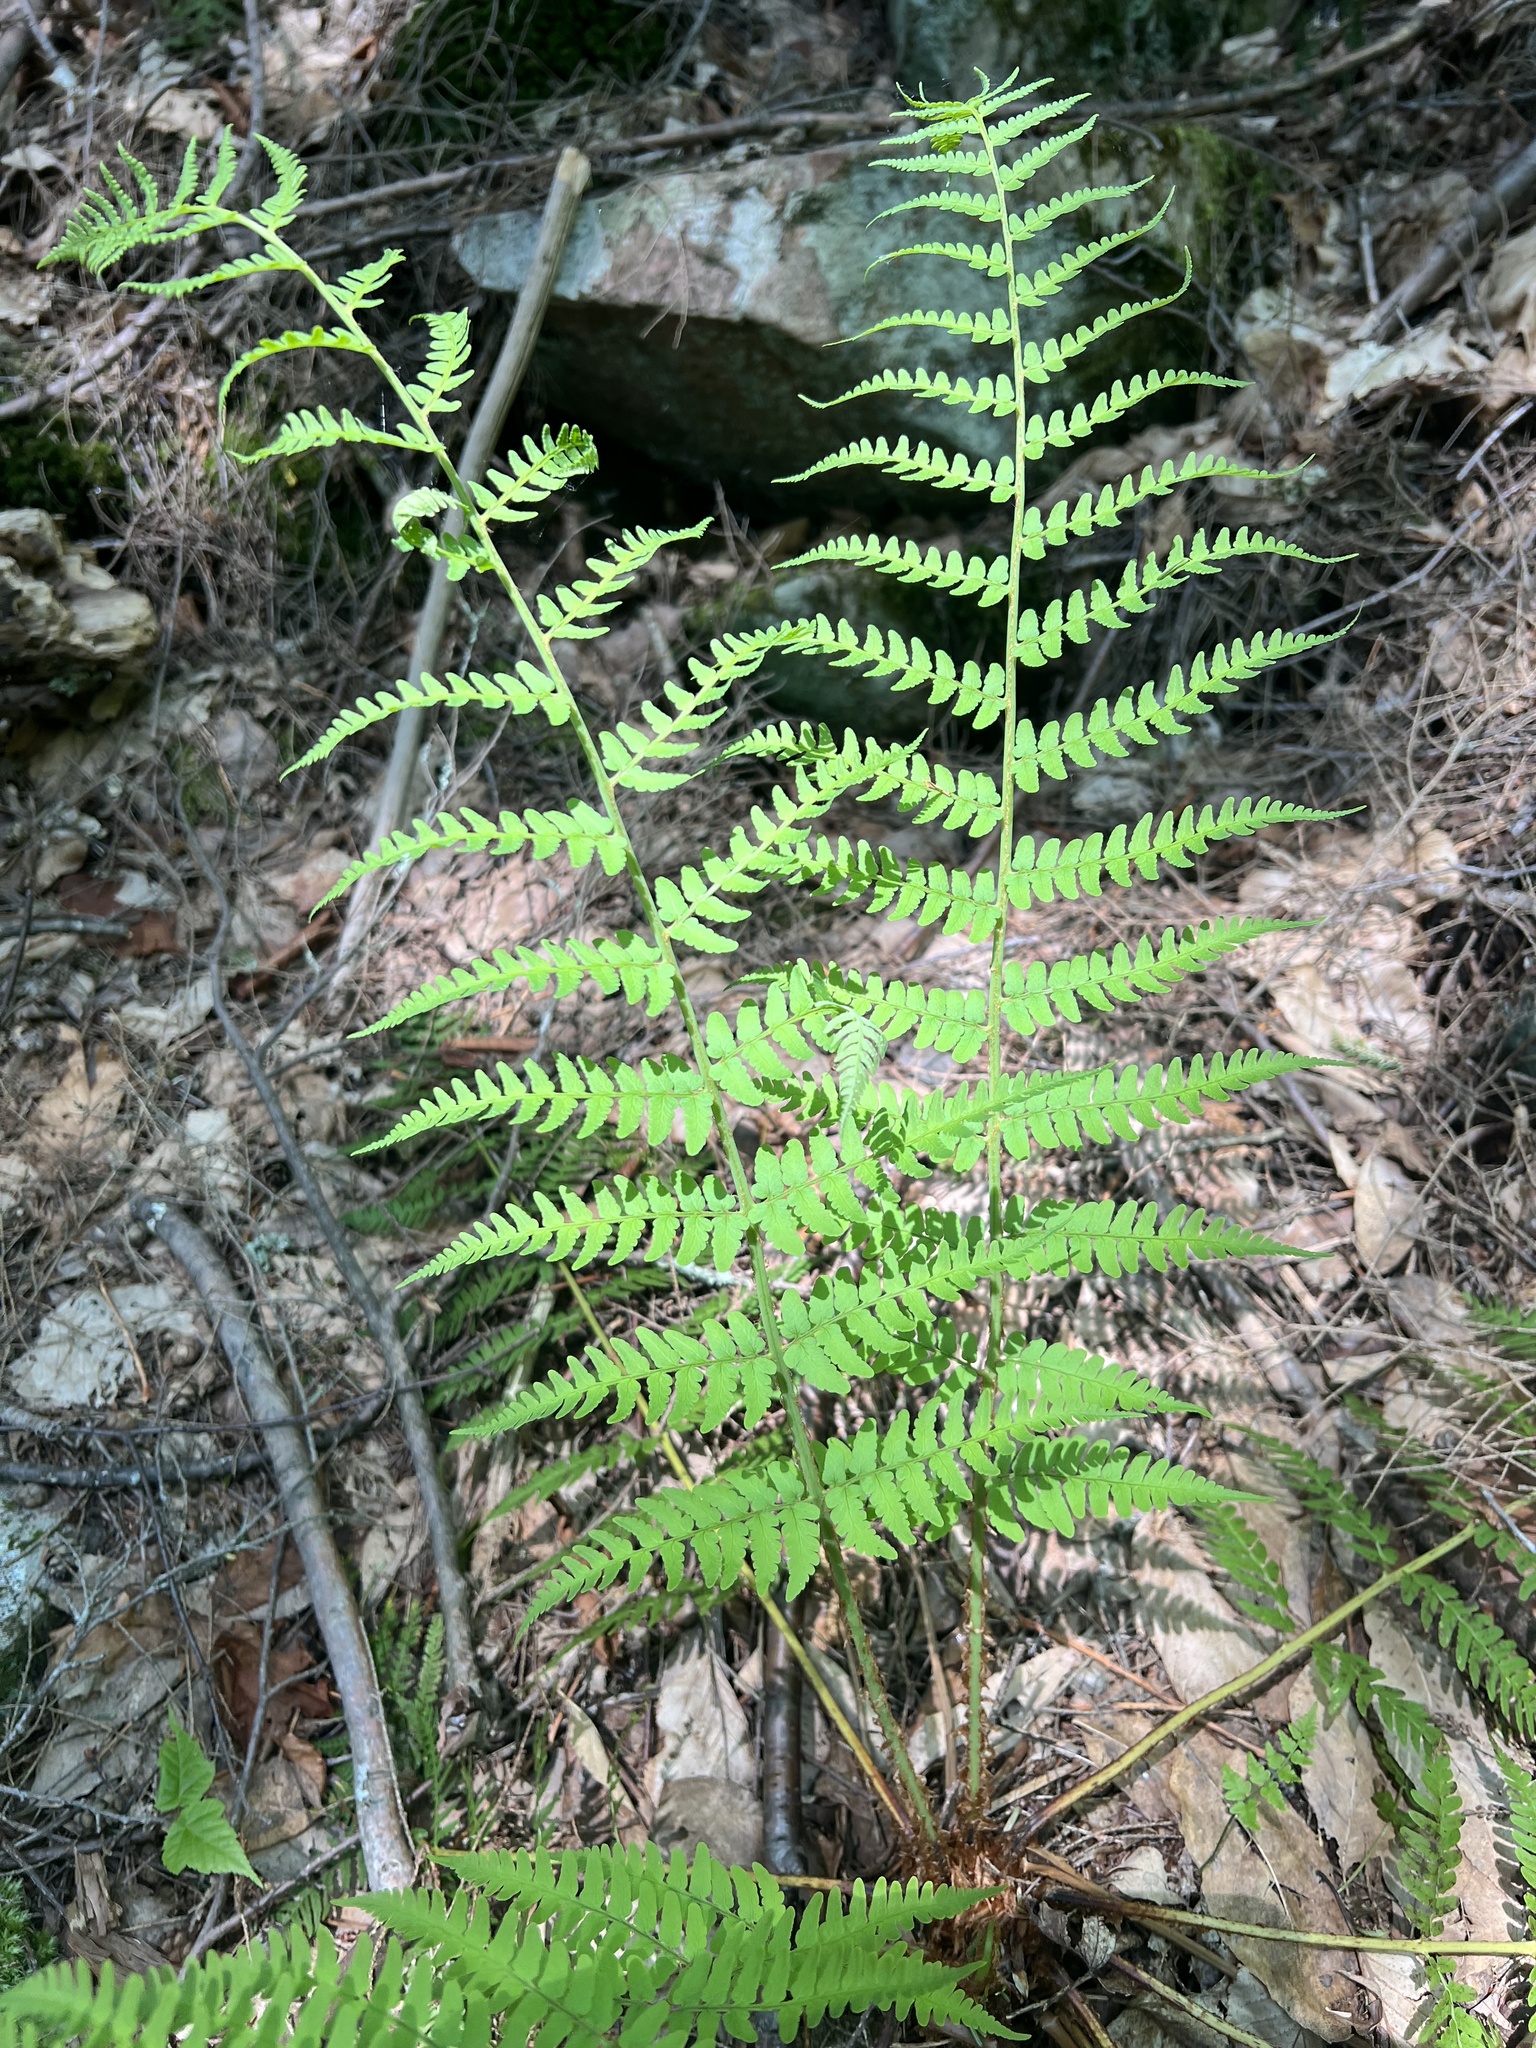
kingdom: Plantae
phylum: Tracheophyta
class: Polypodiopsida
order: Polypodiales
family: Dryopteridaceae
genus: Dryopteris
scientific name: Dryopteris marginalis
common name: Marginal wood fern
